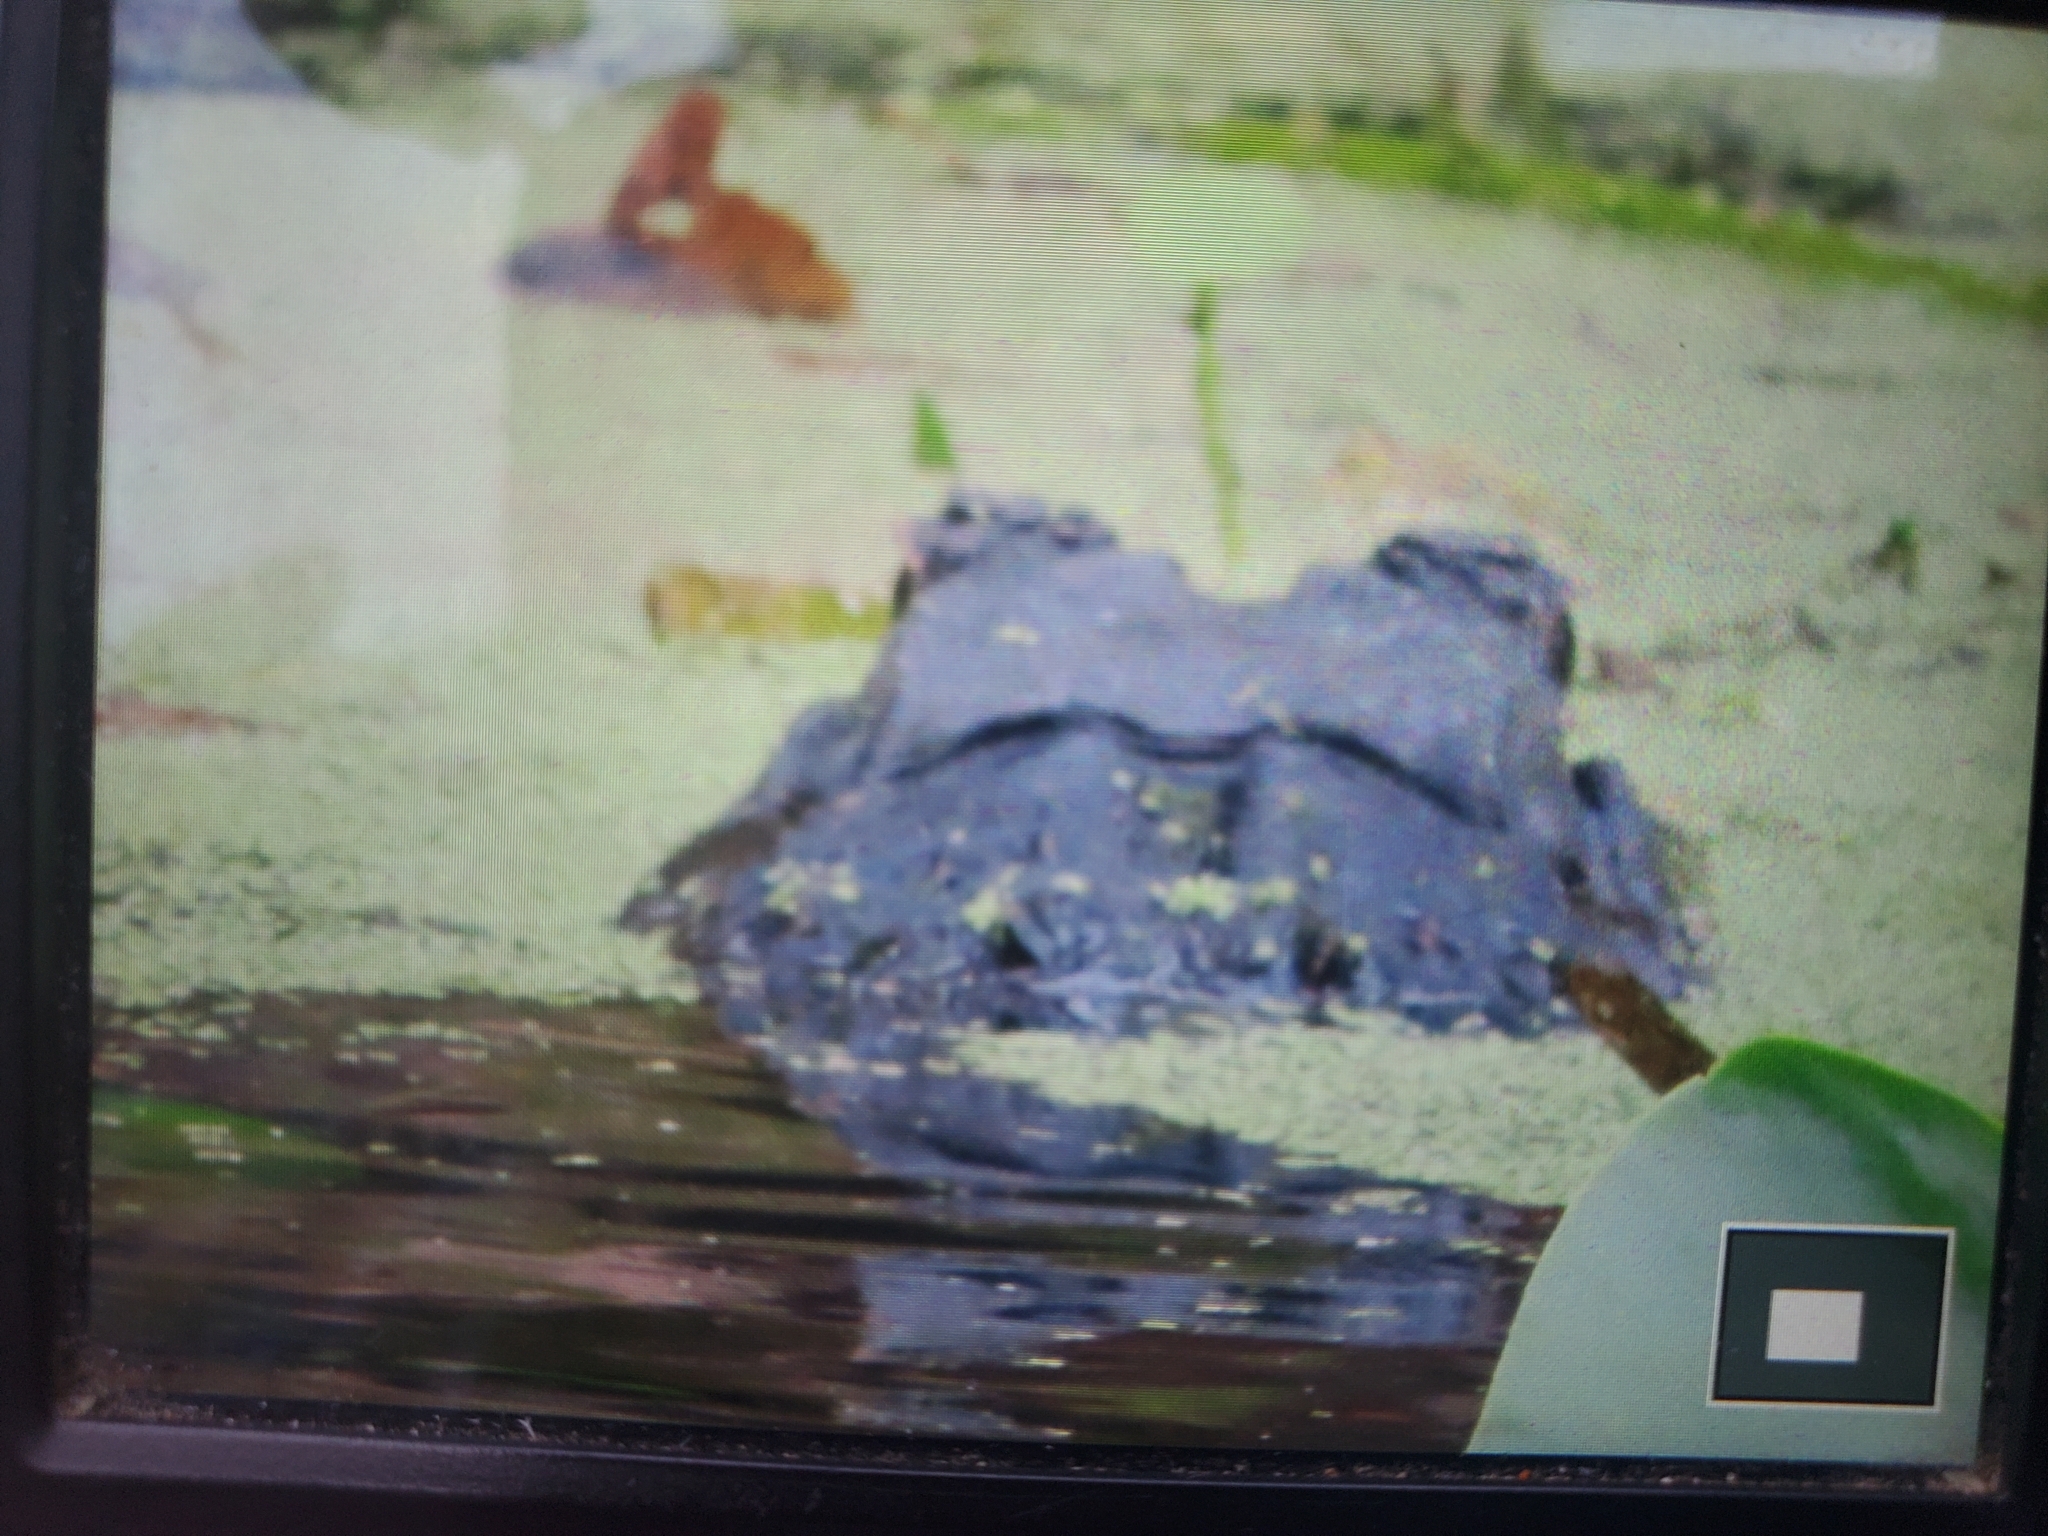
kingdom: Animalia
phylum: Chordata
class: Crocodylia
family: Alligatoridae
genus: Alligator
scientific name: Alligator mississippiensis
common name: American alligator
